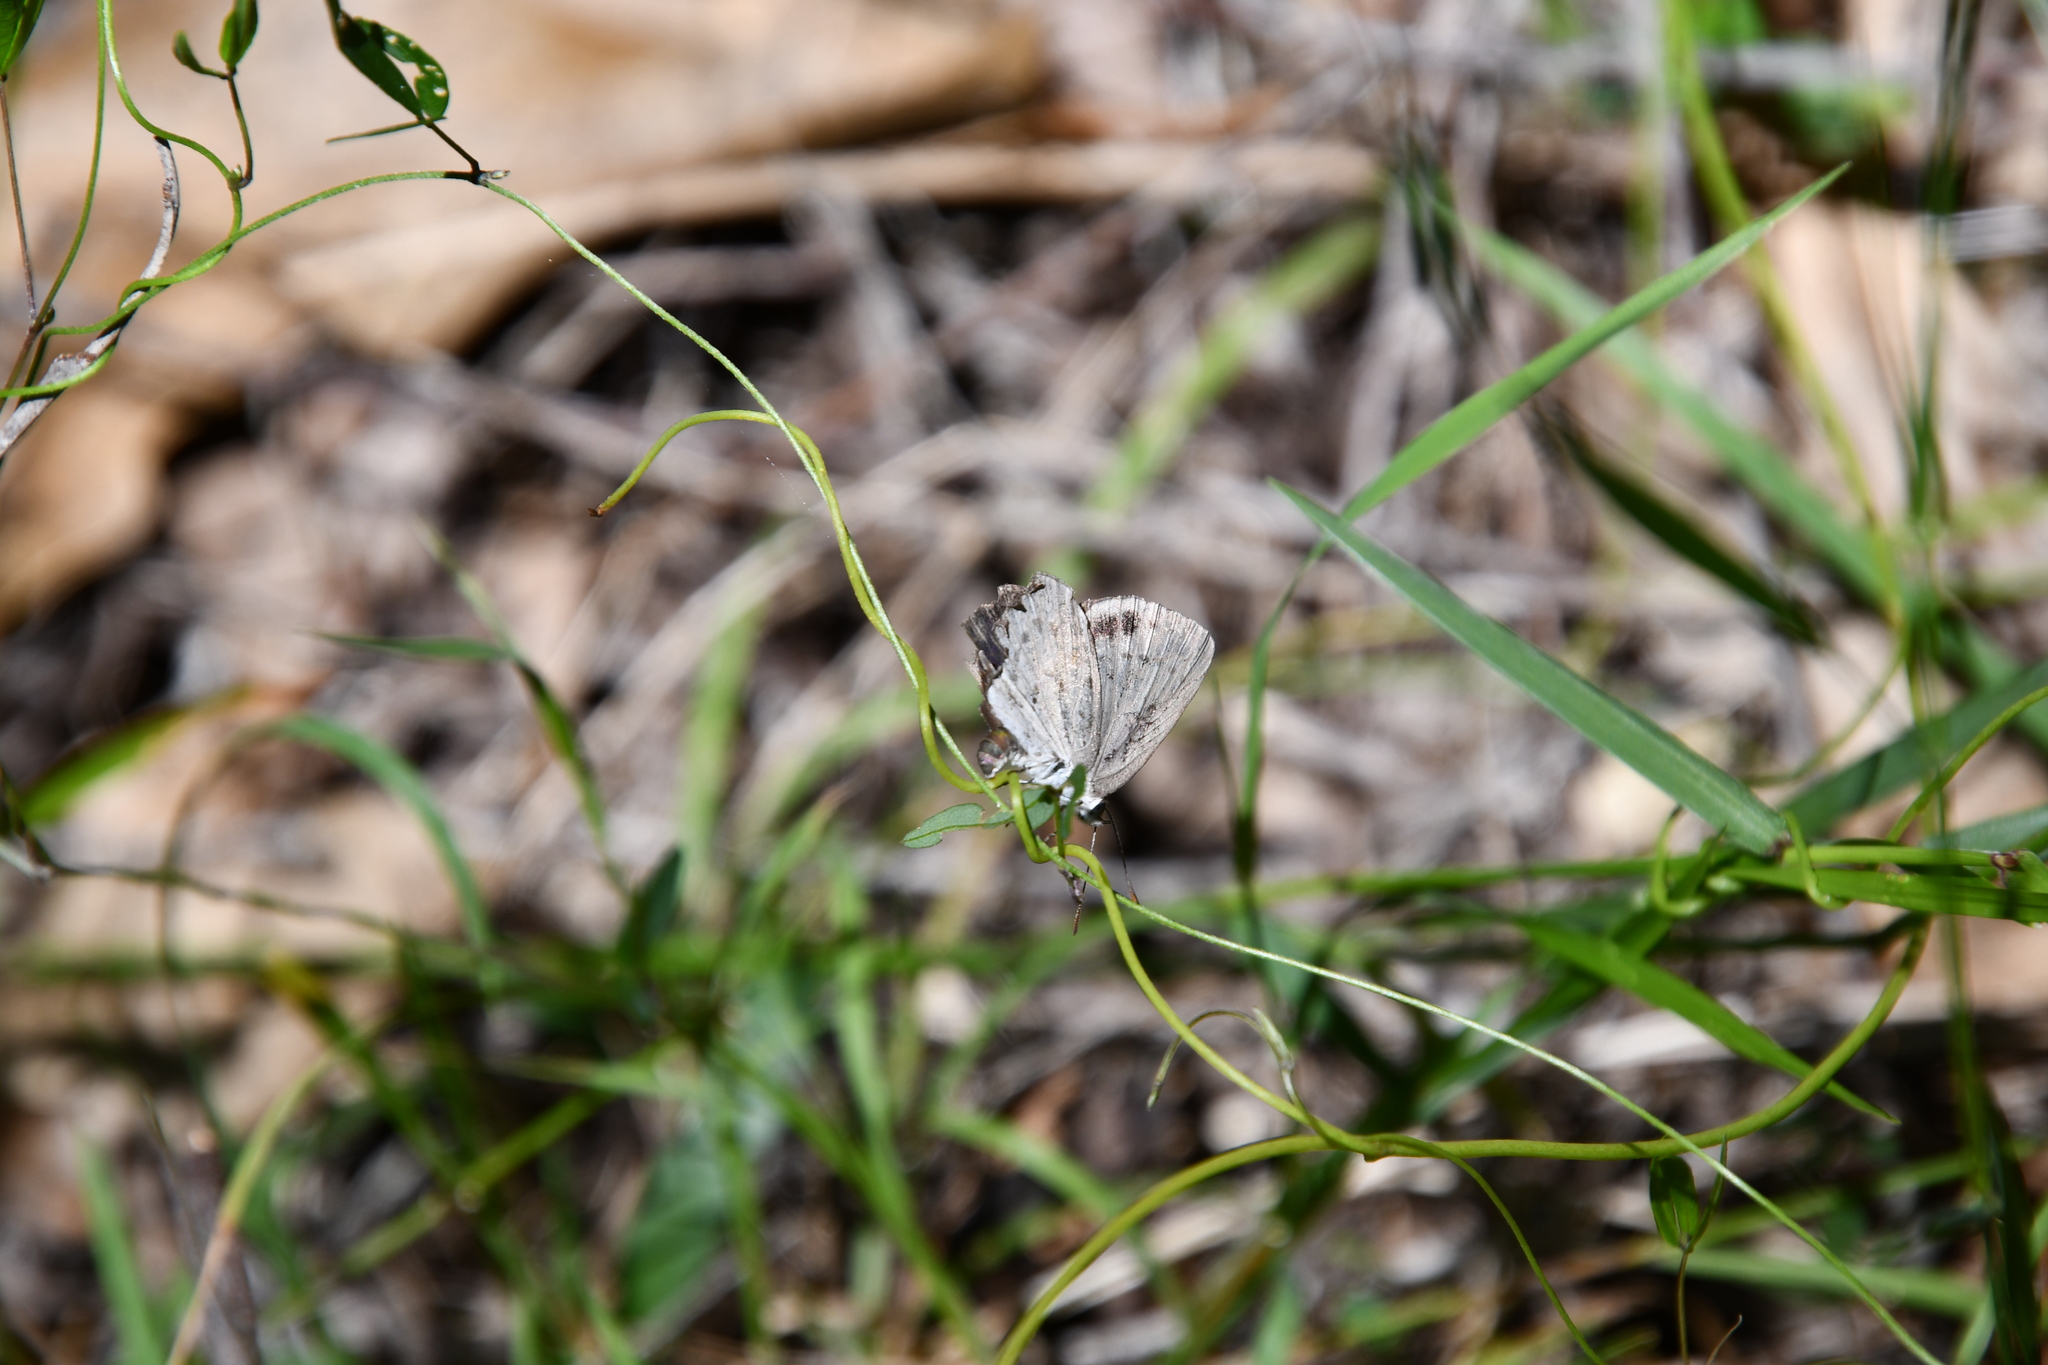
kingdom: Animalia
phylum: Arthropoda
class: Insecta
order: Lepidoptera
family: Lycaenidae
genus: Candalides
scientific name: Candalides
